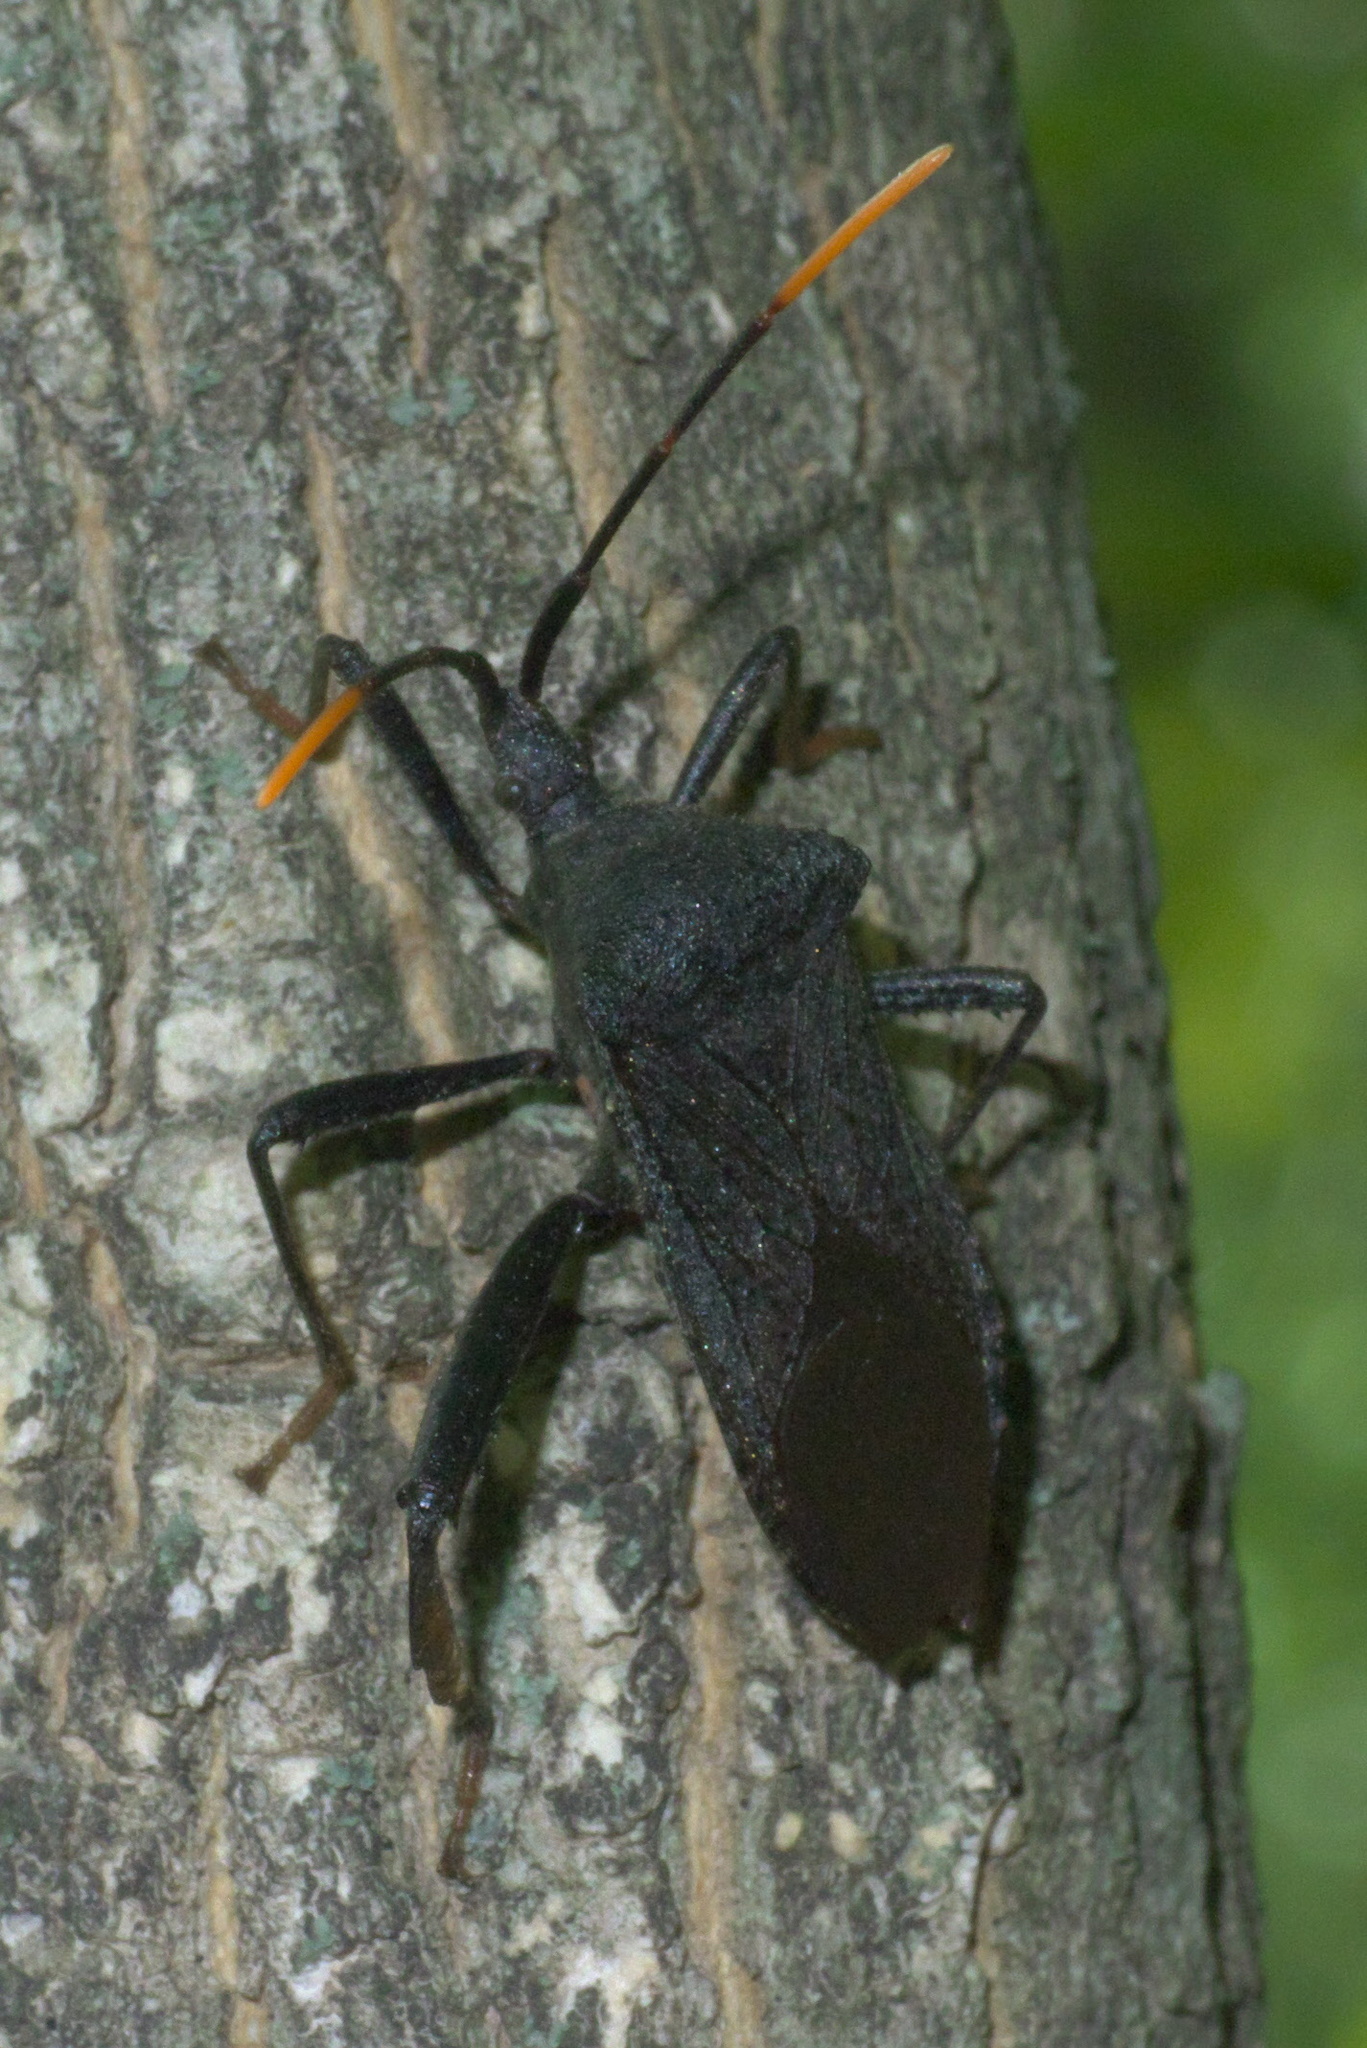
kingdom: Animalia
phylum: Arthropoda
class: Insecta
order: Hemiptera
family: Coreidae
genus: Acanthocephala
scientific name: Acanthocephala terminalis
